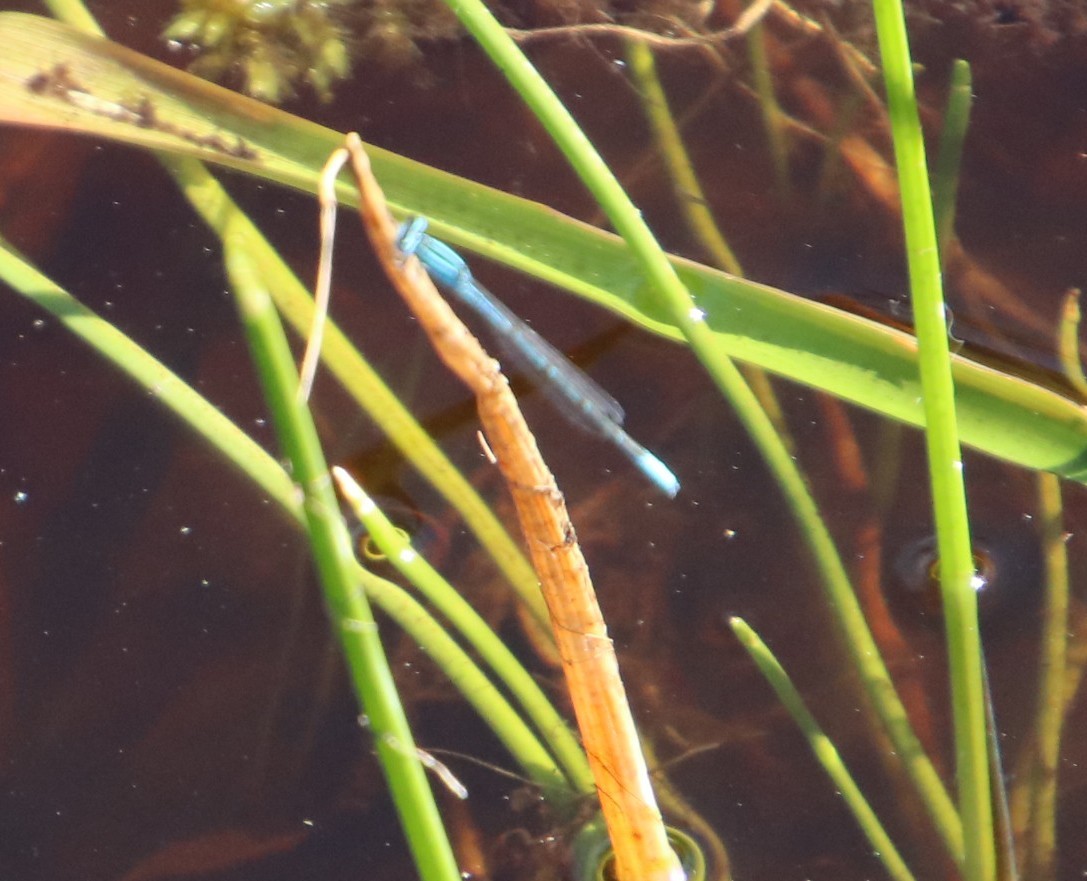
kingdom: Animalia
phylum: Arthropoda
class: Insecta
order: Odonata
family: Coenagrionidae
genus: Africallagma
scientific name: Africallagma glaucum
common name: Swamp bluet
